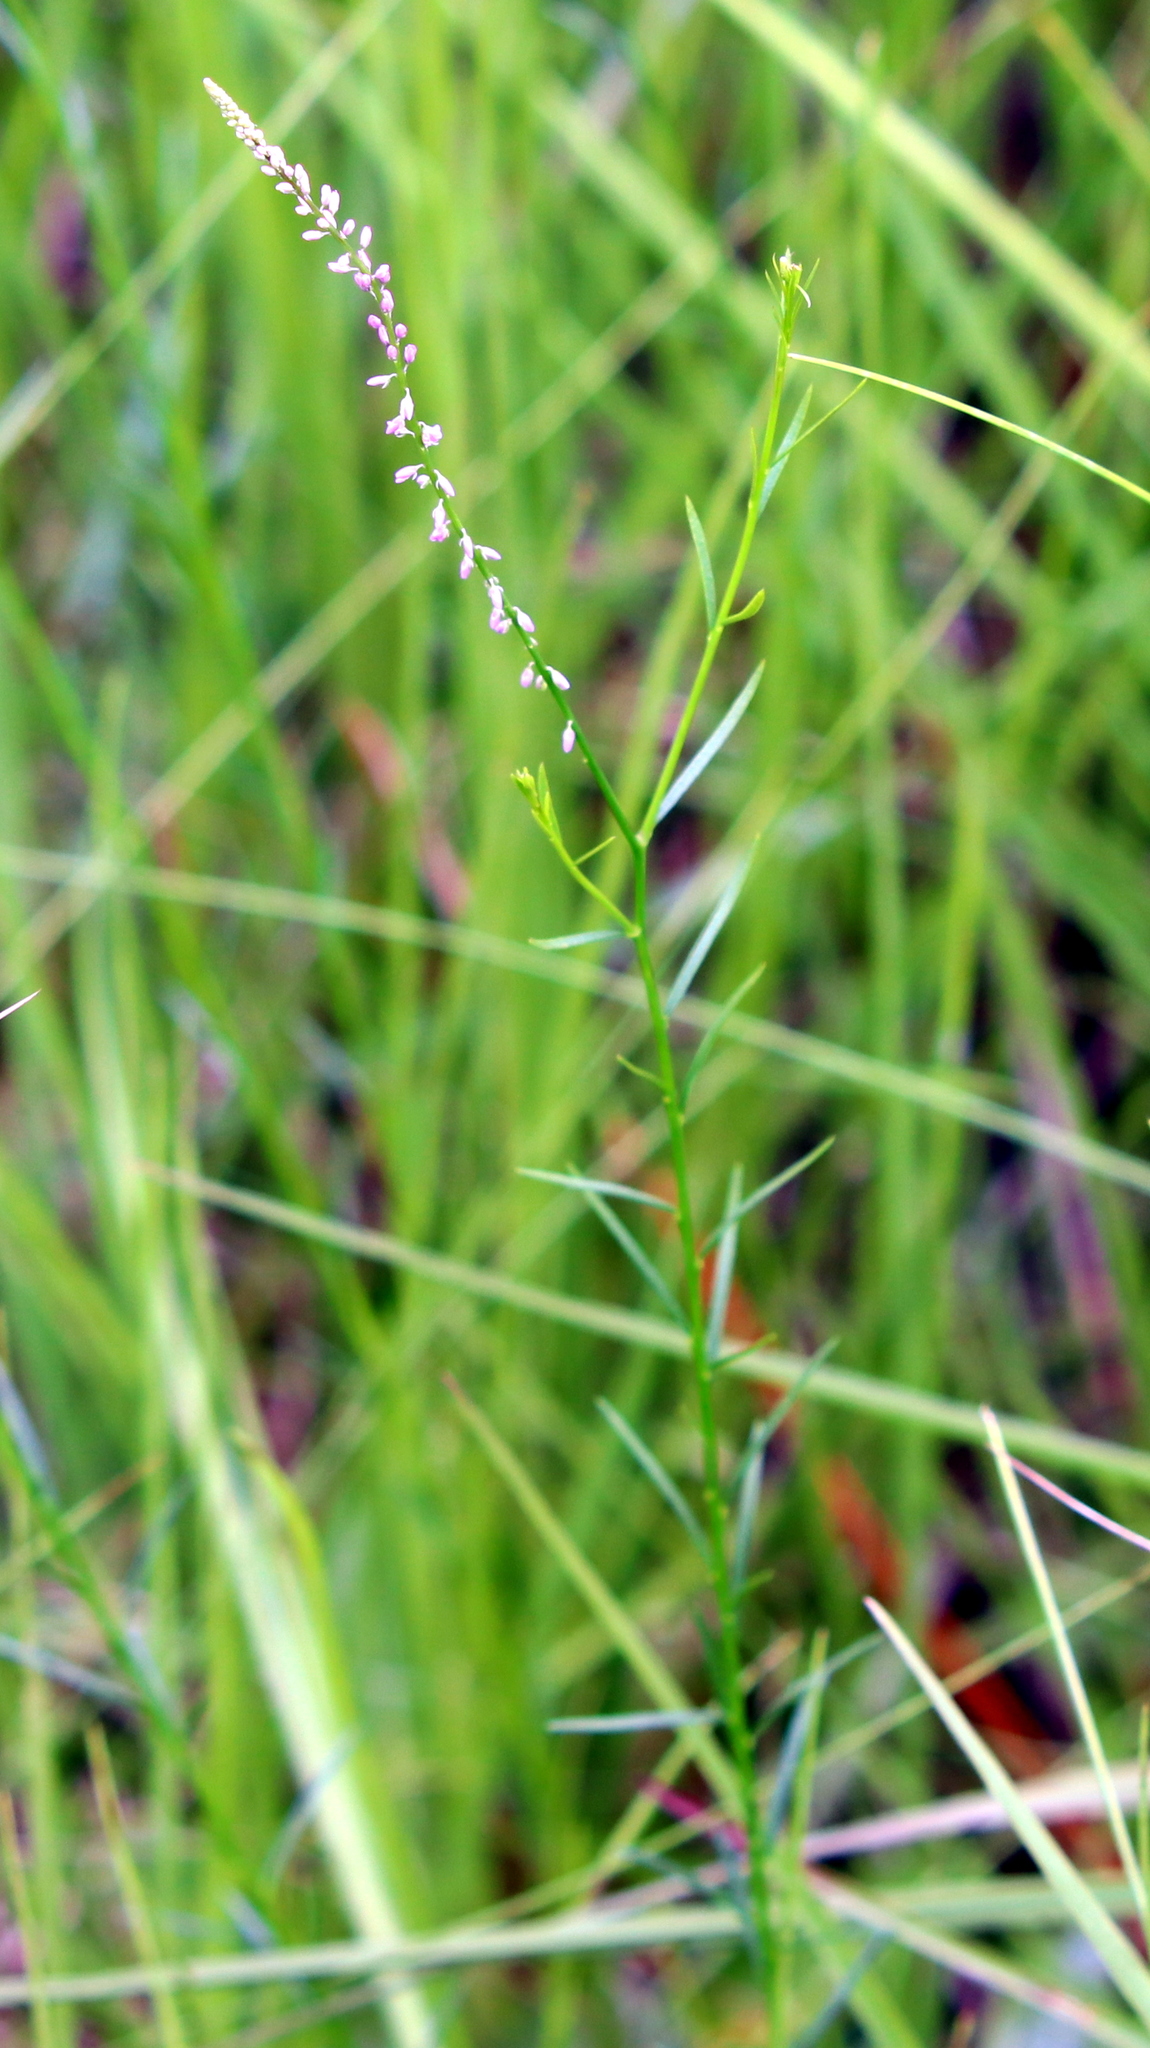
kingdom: Plantae
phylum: Tracheophyta
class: Magnoliopsida
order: Fabales
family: Polygalaceae
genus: Polygala
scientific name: Polygala tenella
